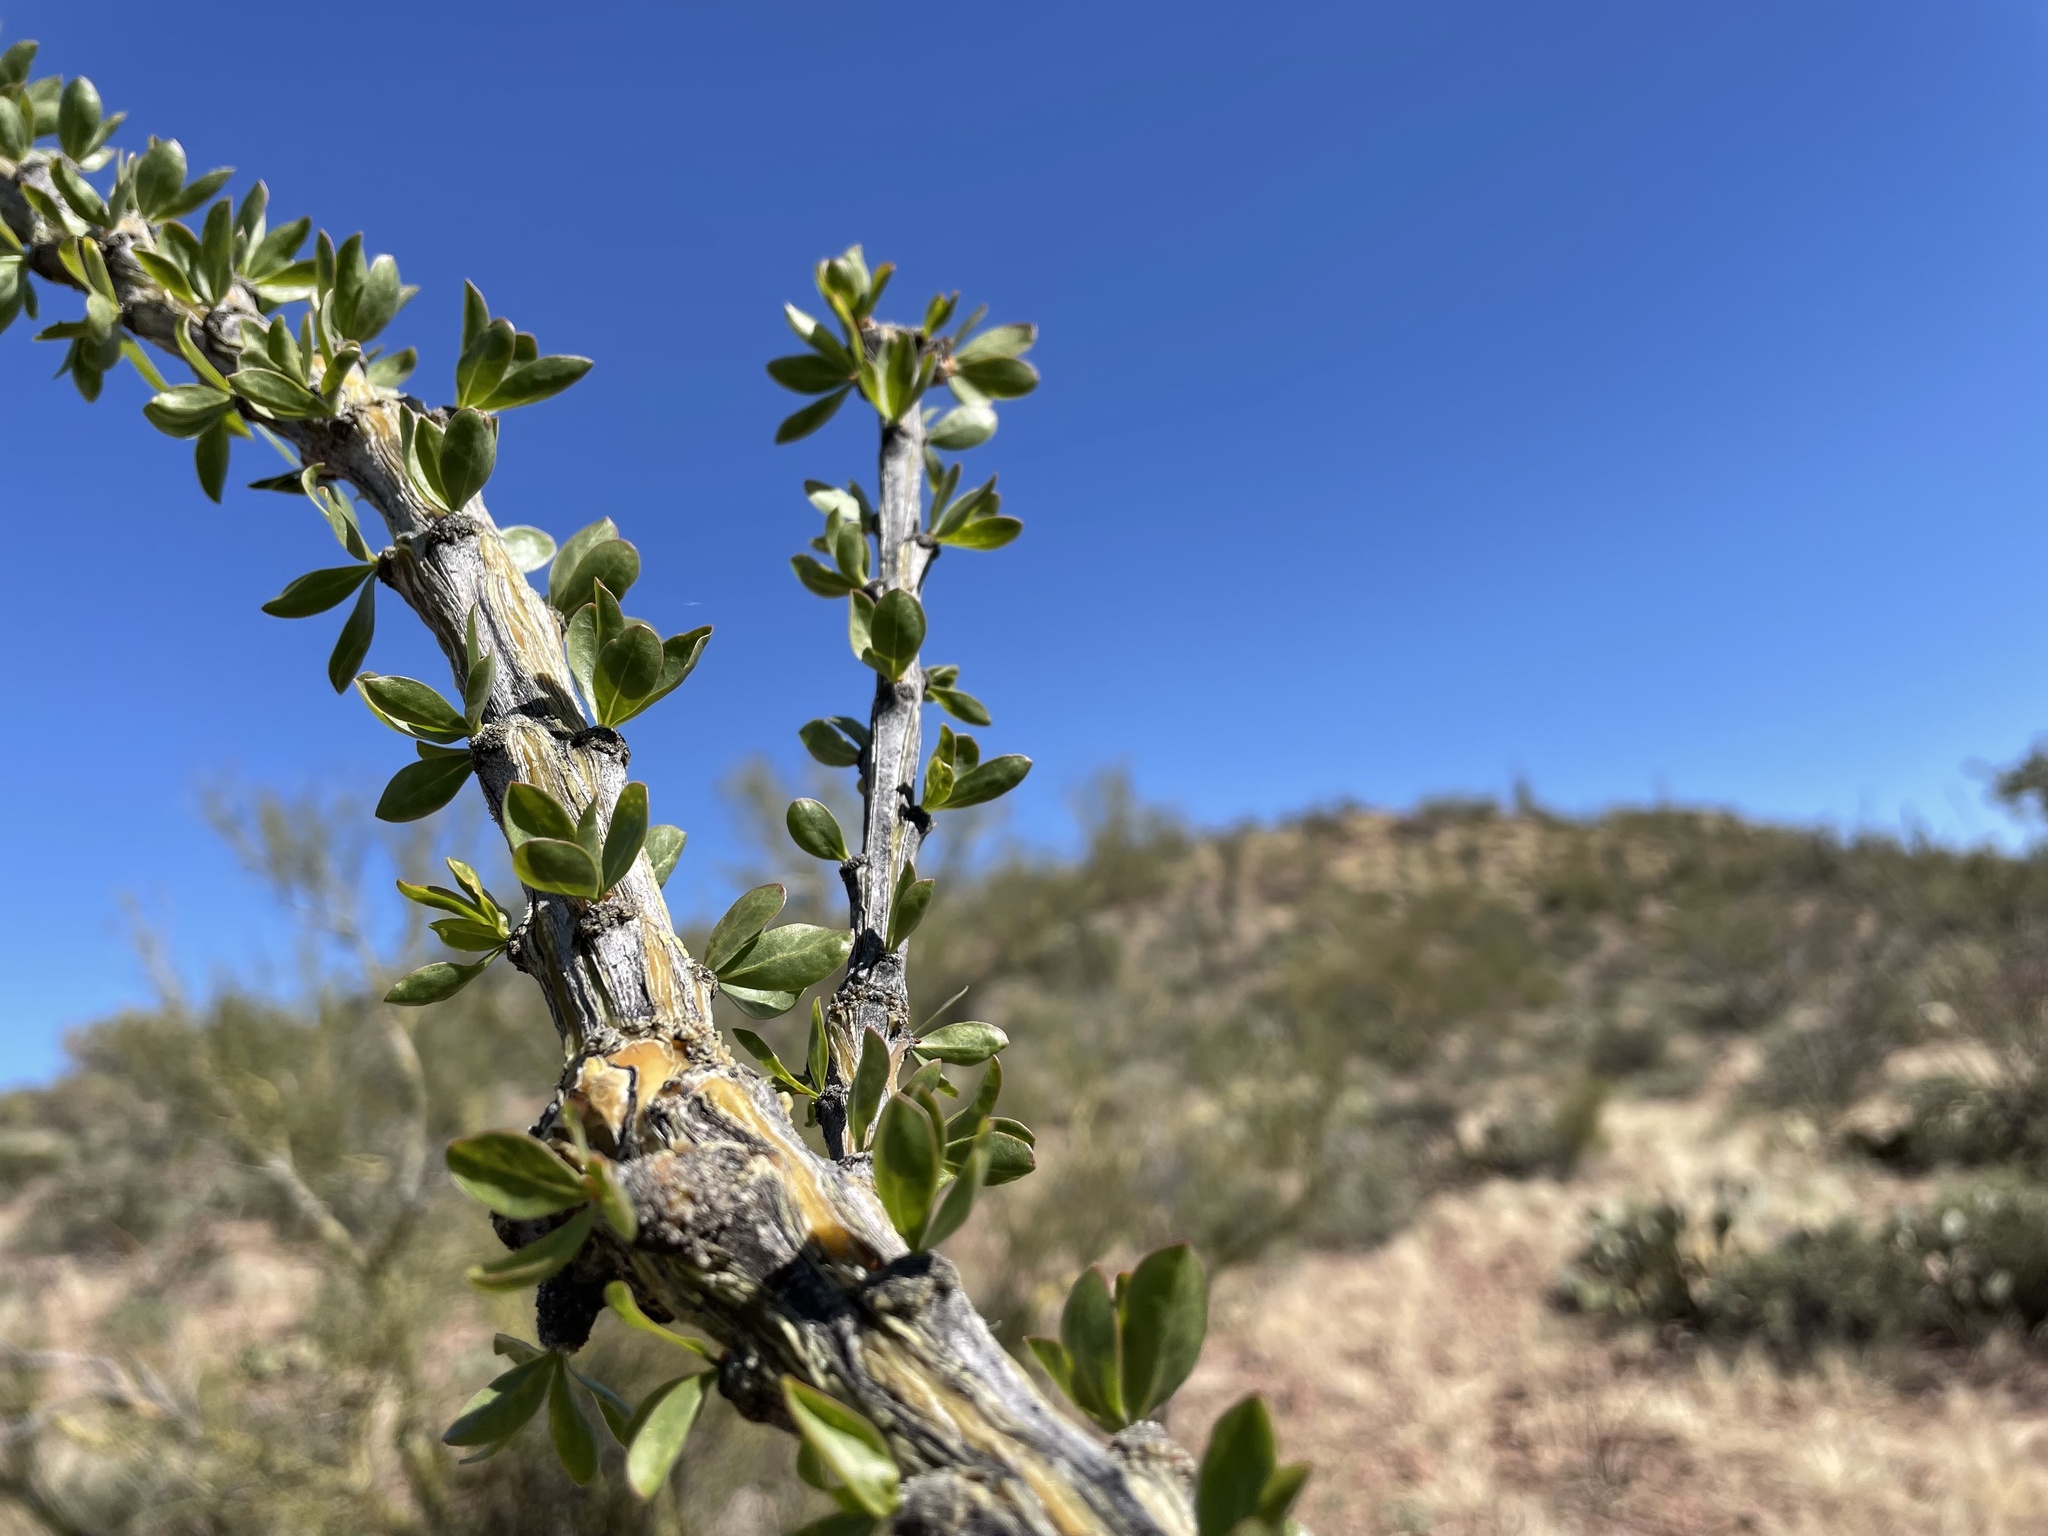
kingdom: Plantae
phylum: Tracheophyta
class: Magnoliopsida
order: Ericales
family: Fouquieriaceae
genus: Fouquieria
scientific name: Fouquieria splendens
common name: Vine-cactus
